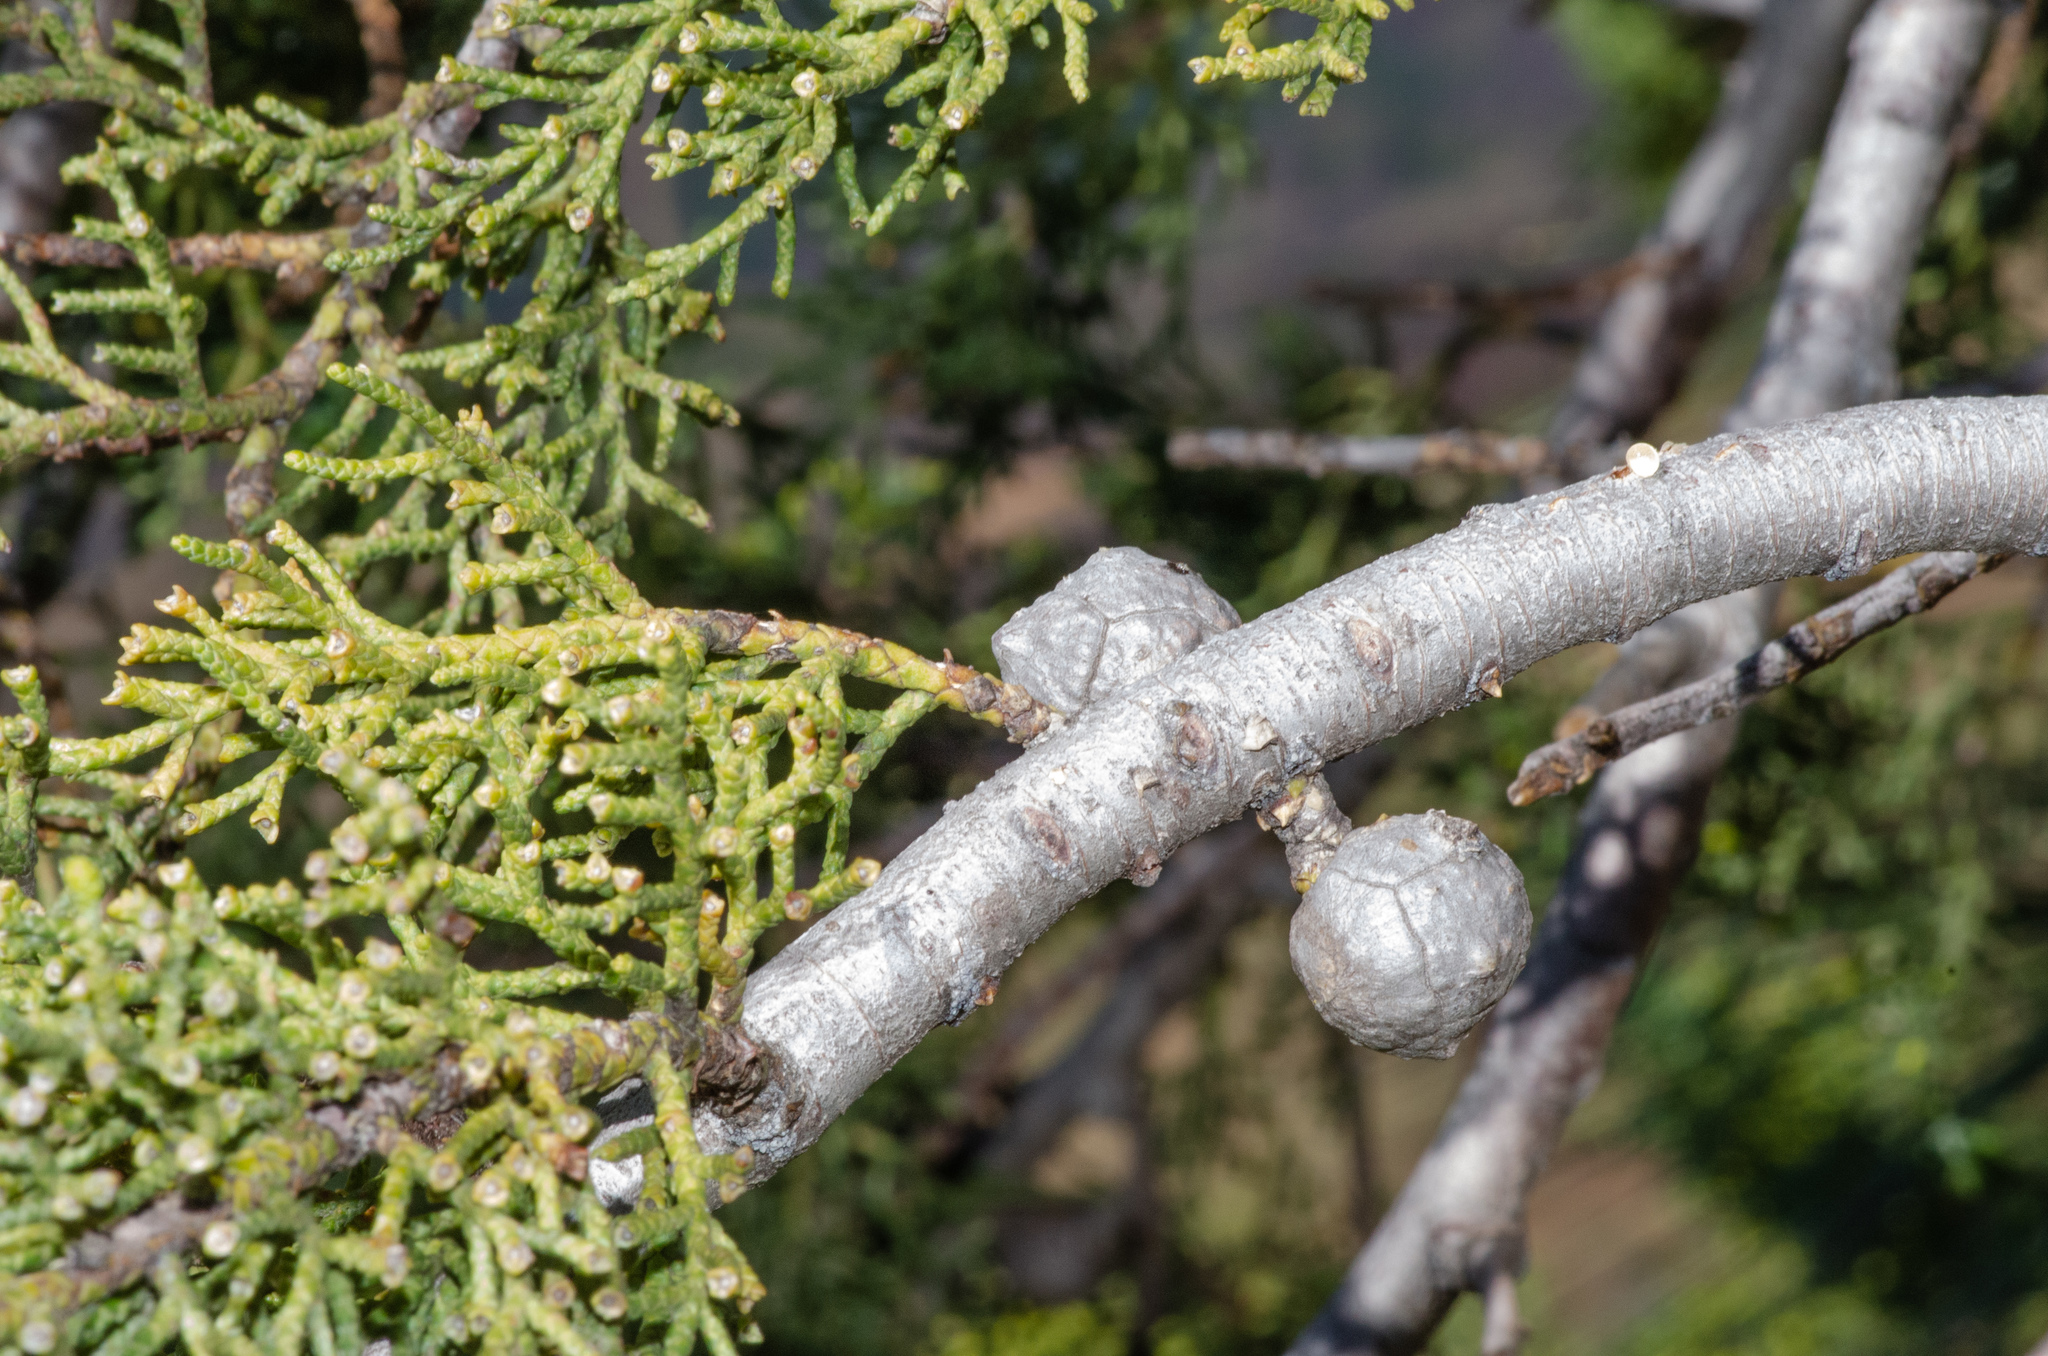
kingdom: Plantae
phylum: Tracheophyta
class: Pinopsida
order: Pinales
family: Cupressaceae
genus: Cupressus
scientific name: Cupressus sargentii
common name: Sargent cypress
